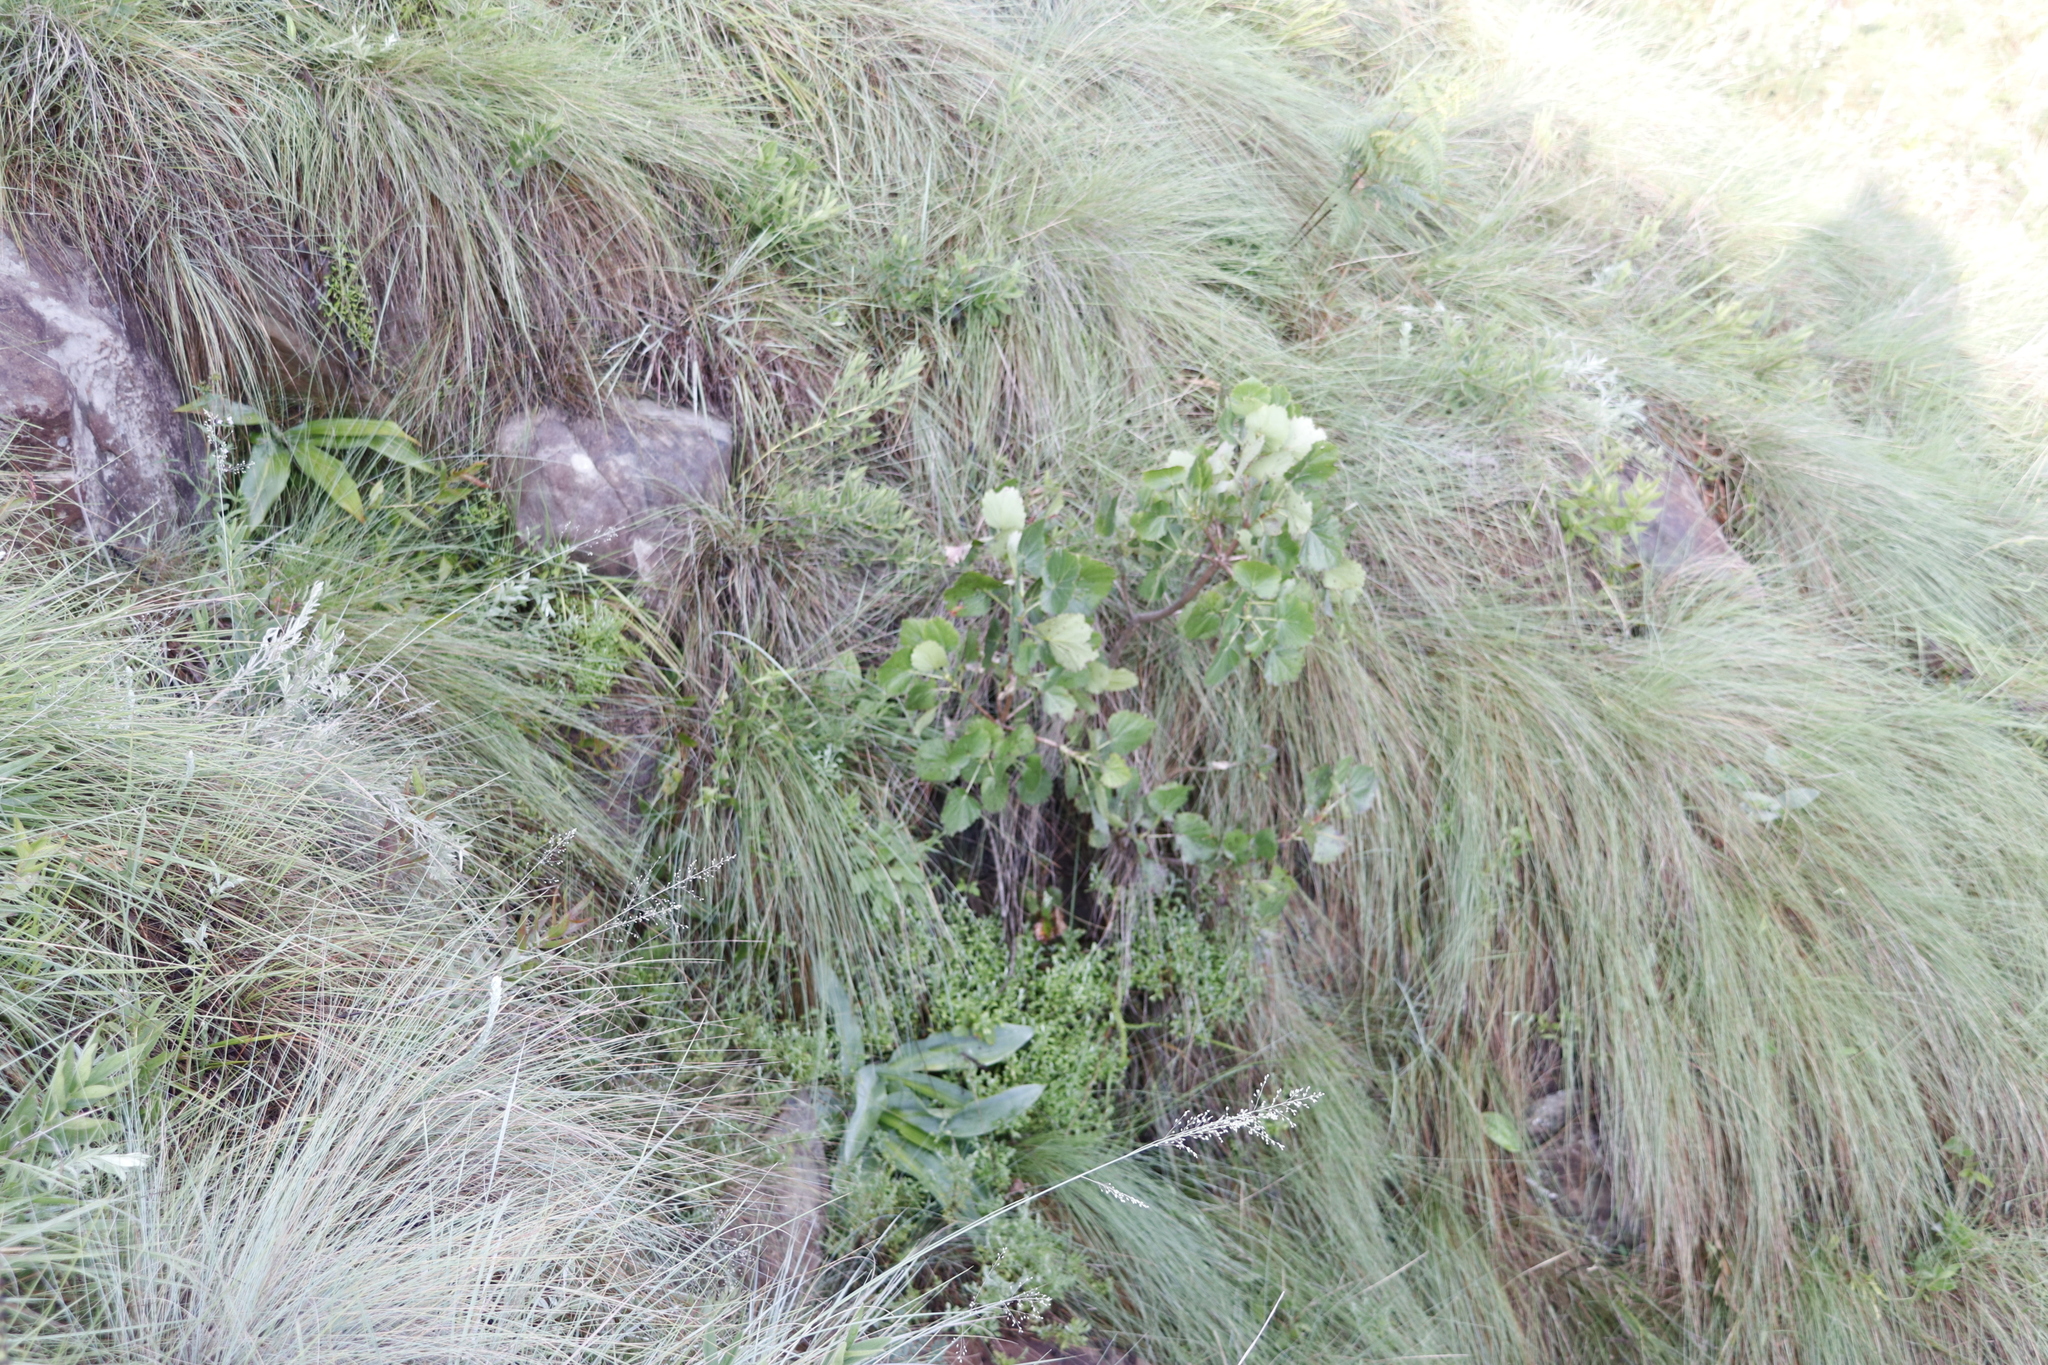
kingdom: Plantae
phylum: Tracheophyta
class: Magnoliopsida
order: Geraniales
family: Francoaceae
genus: Greyia
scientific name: Greyia sutherlandii
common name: Glossy bottlebrush
